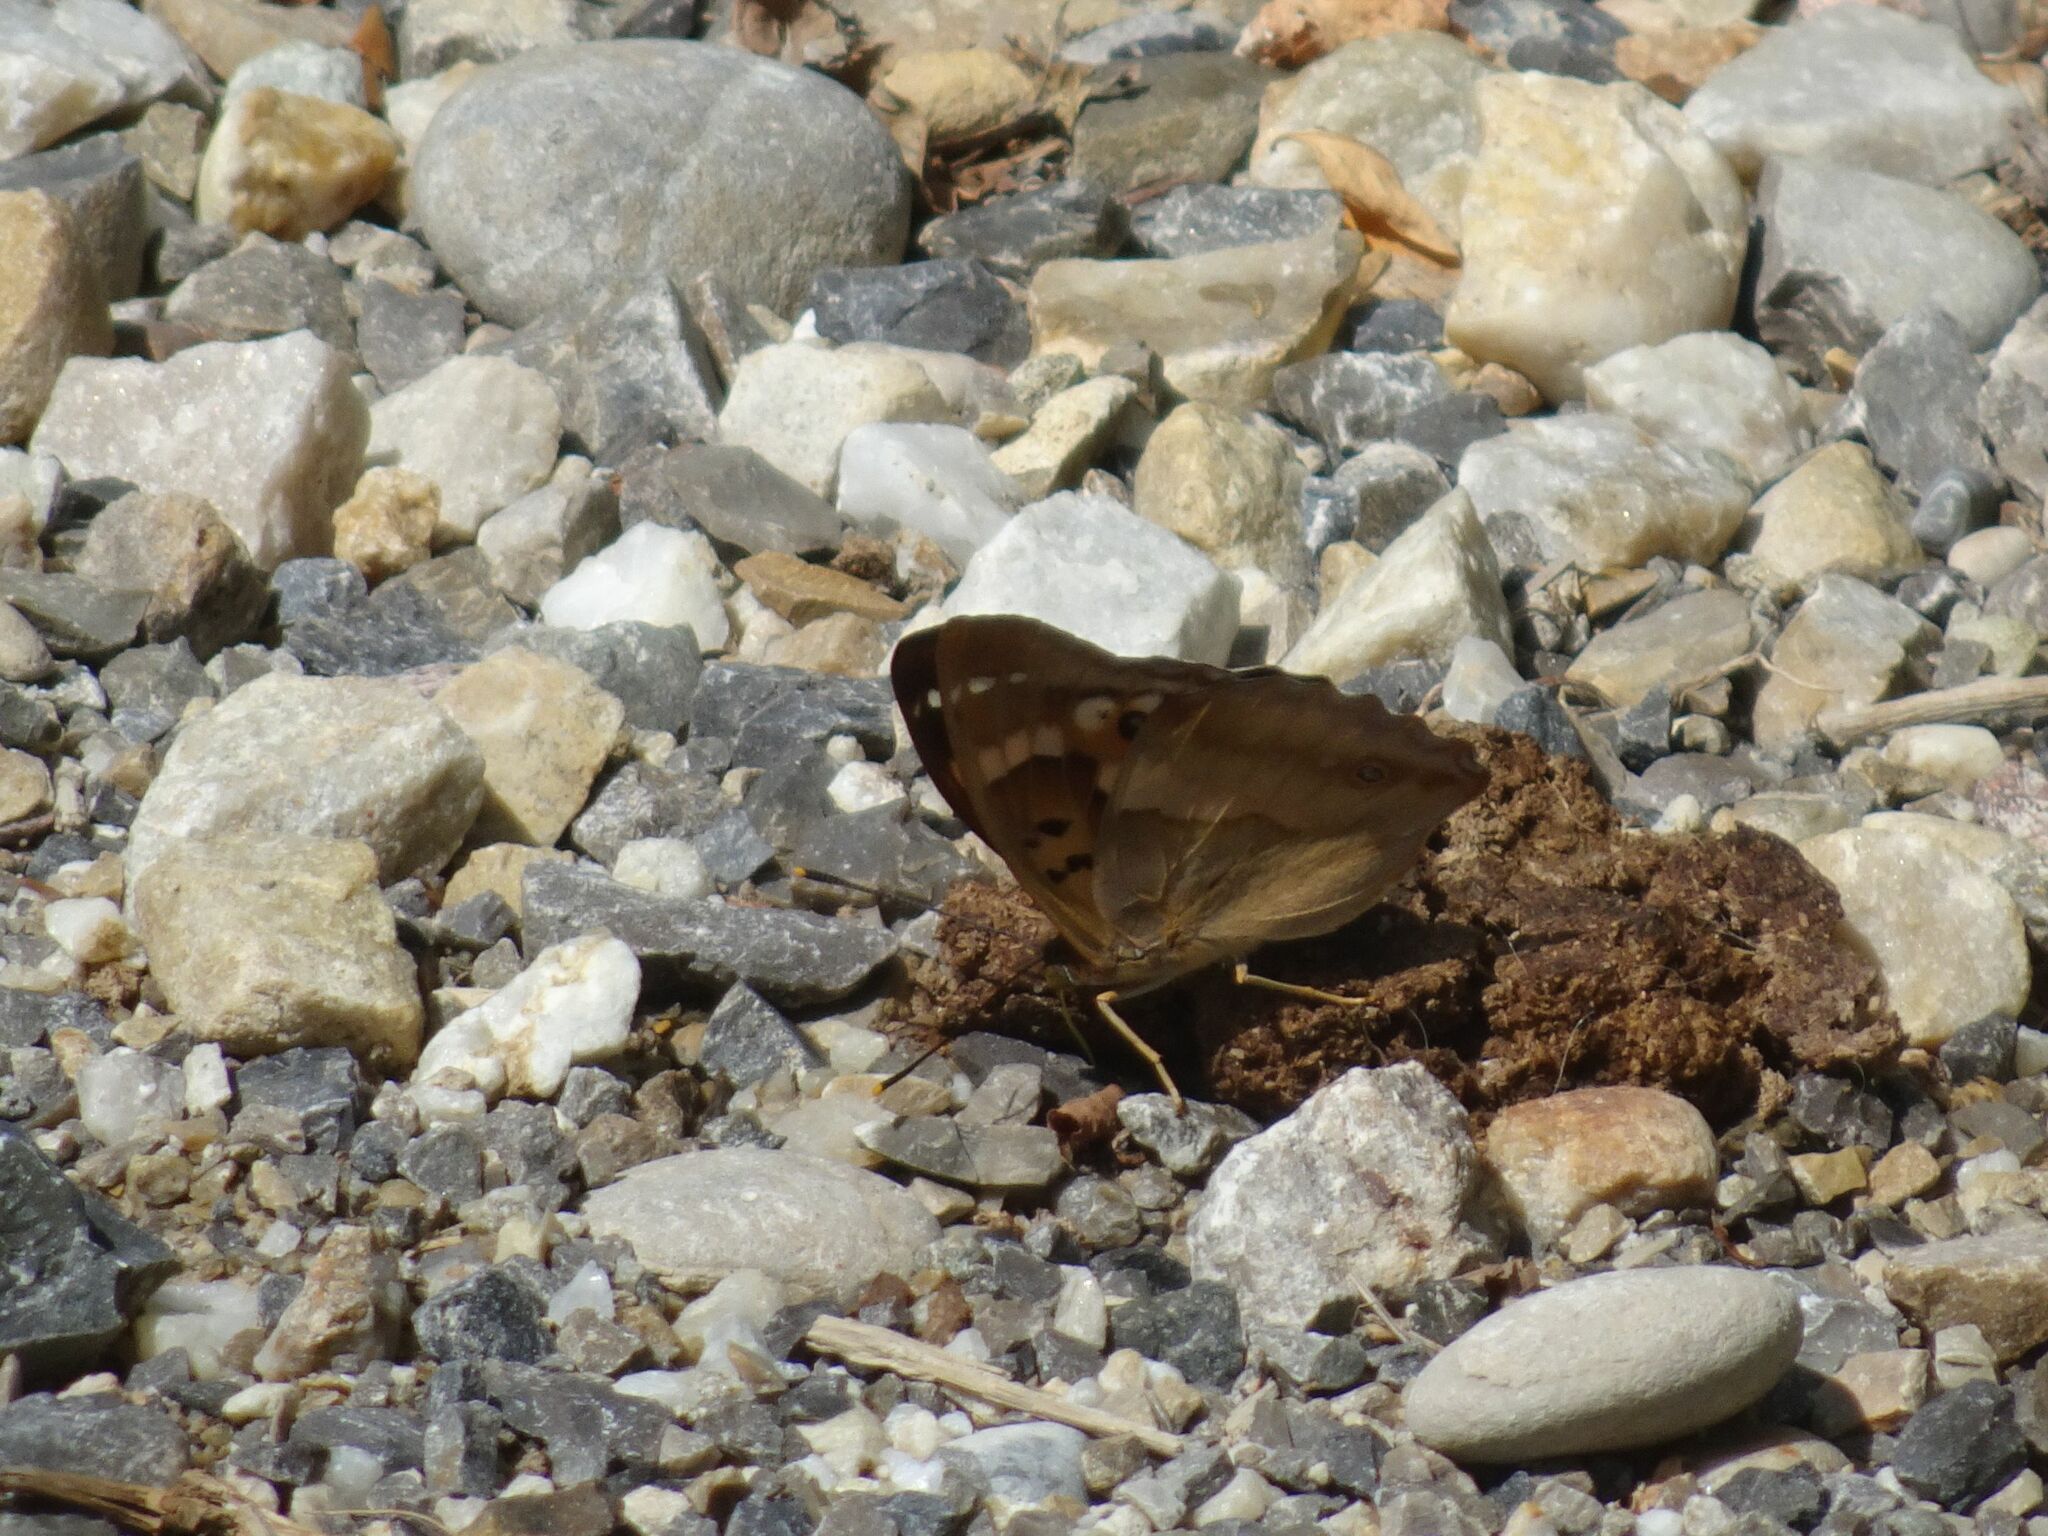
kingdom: Animalia
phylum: Arthropoda
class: Insecta
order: Lepidoptera
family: Nymphalidae
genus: Apatura
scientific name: Apatura ilia
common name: Lesser purple emperor
